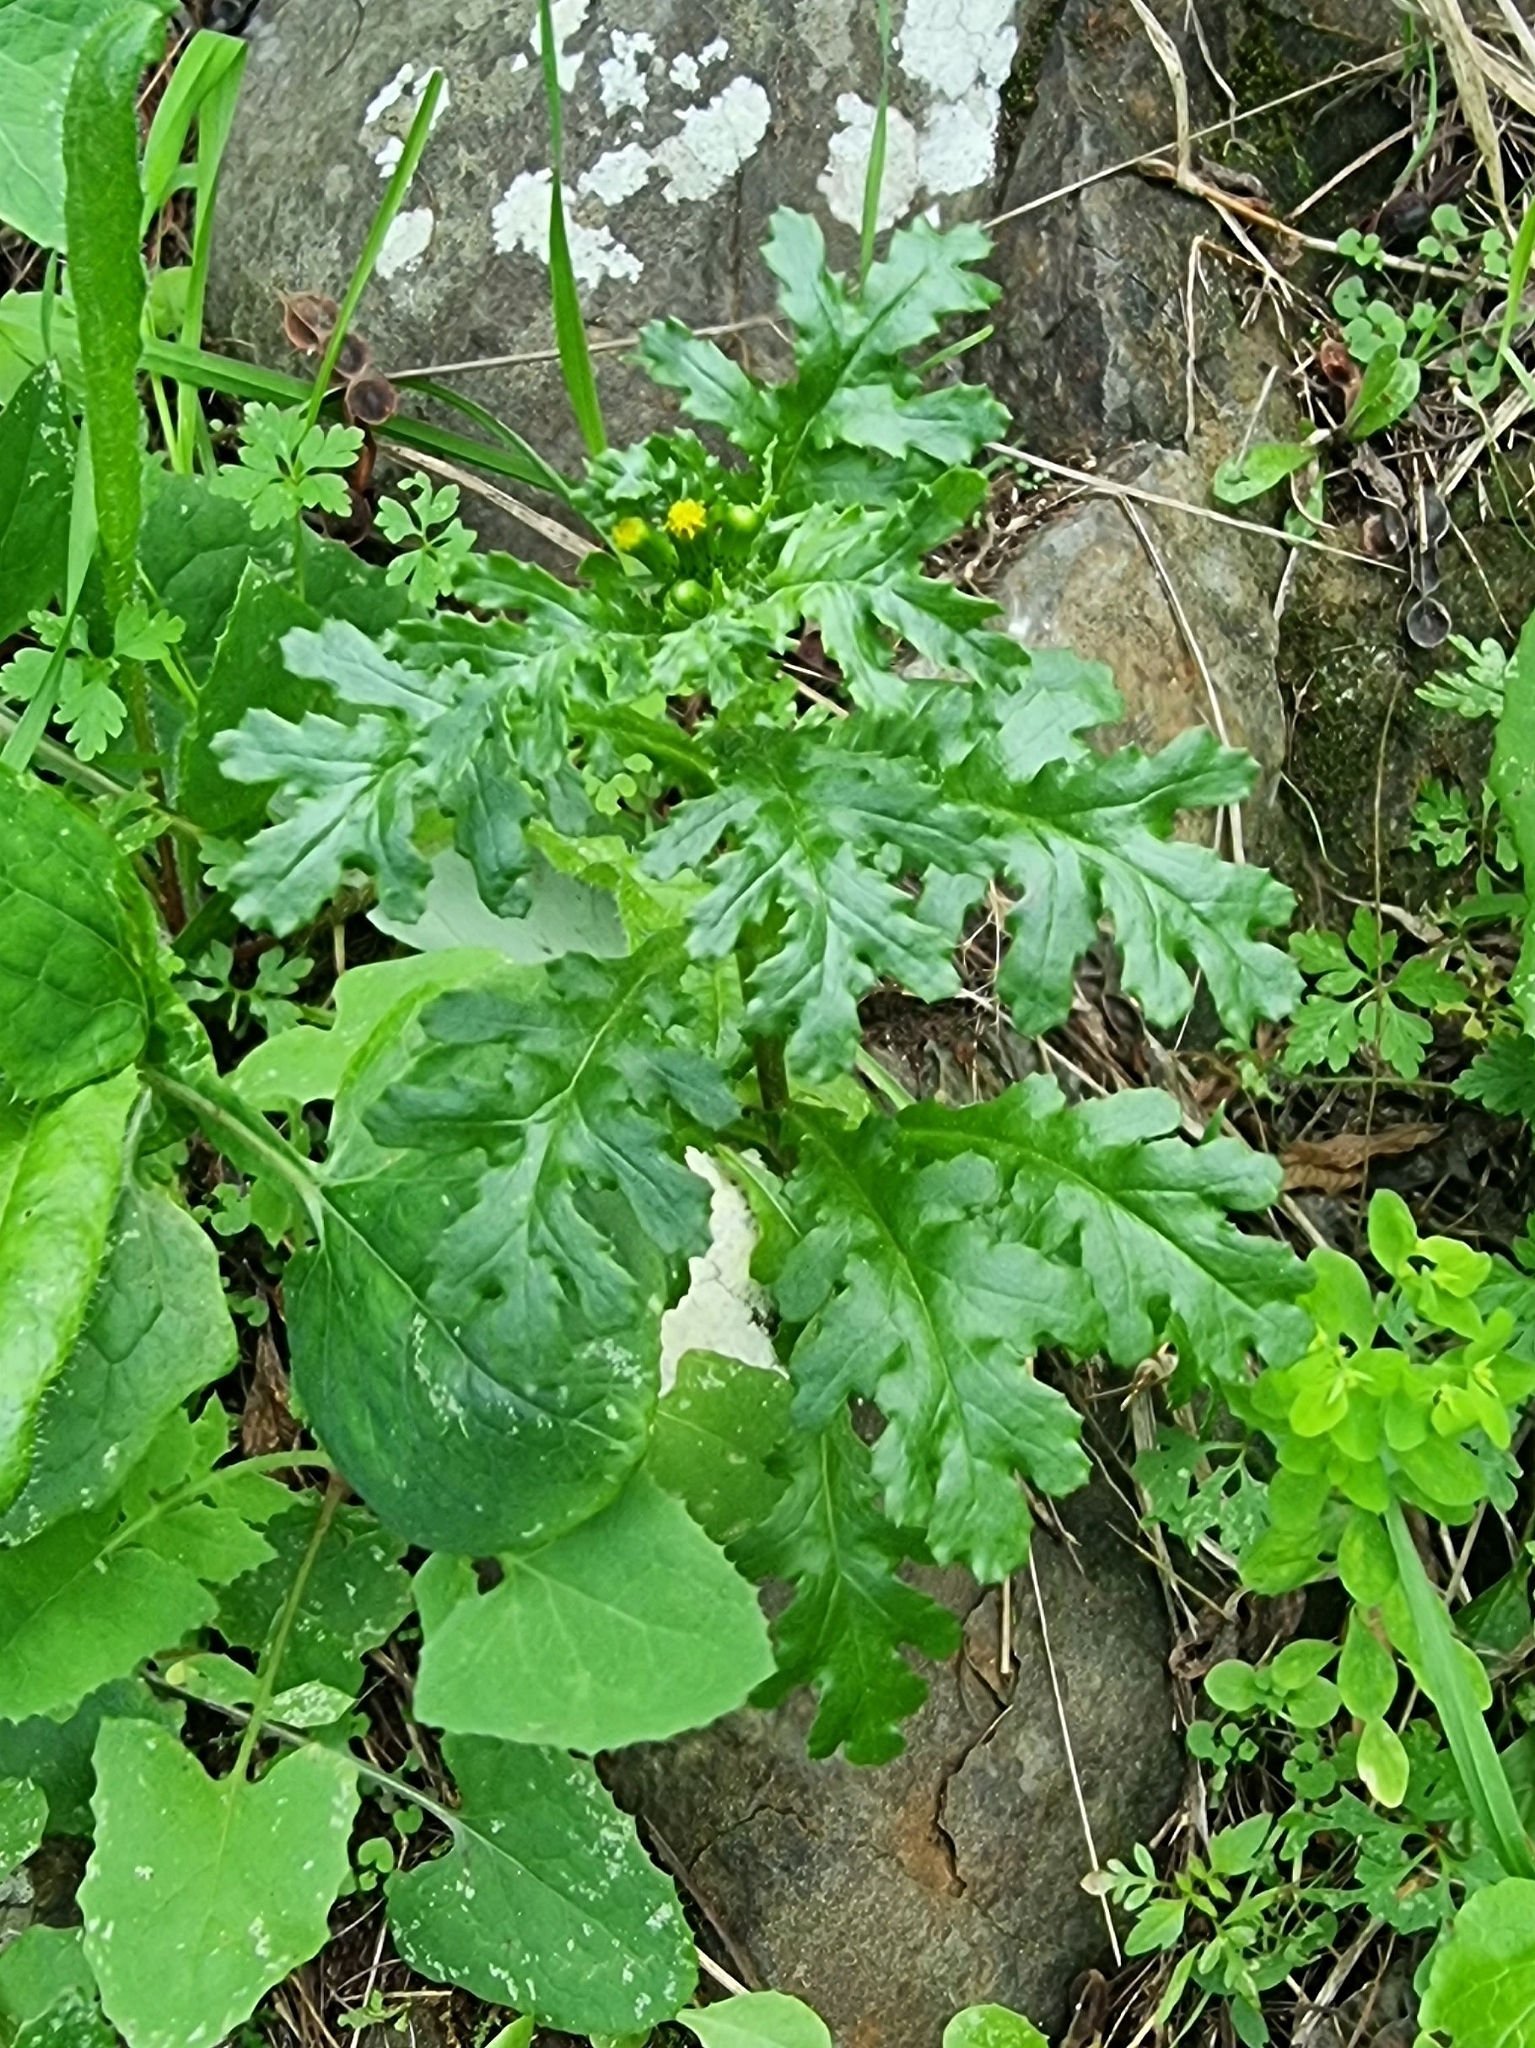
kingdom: Plantae
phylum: Tracheophyta
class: Magnoliopsida
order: Asterales
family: Asteraceae
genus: Senecio
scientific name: Senecio vulgaris
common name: Old-man-in-the-spring
